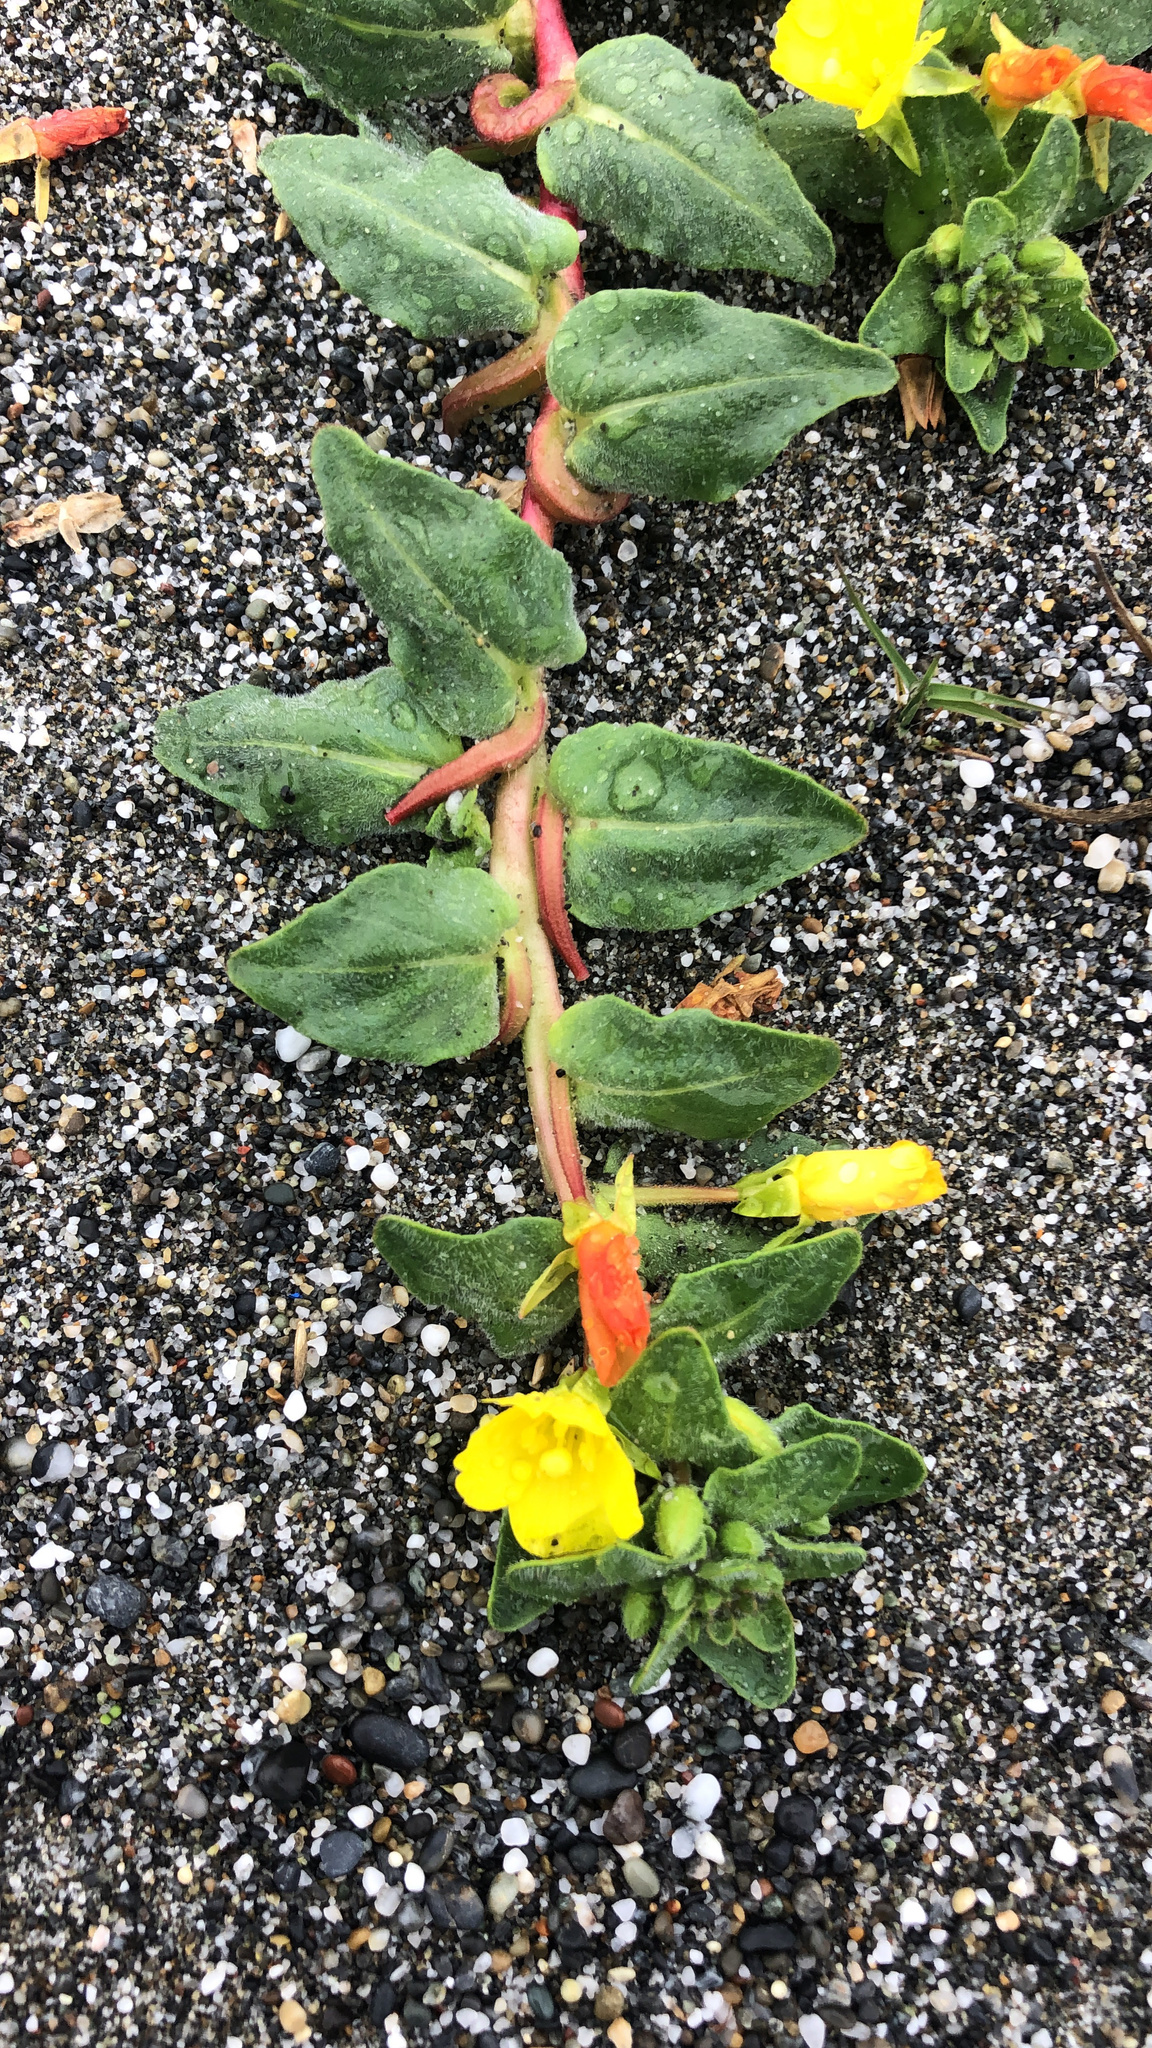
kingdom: Plantae
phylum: Tracheophyta
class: Magnoliopsida
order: Myrtales
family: Onagraceae
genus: Camissoniopsis
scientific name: Camissoniopsis cheiranthifolia
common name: Beach suncup
